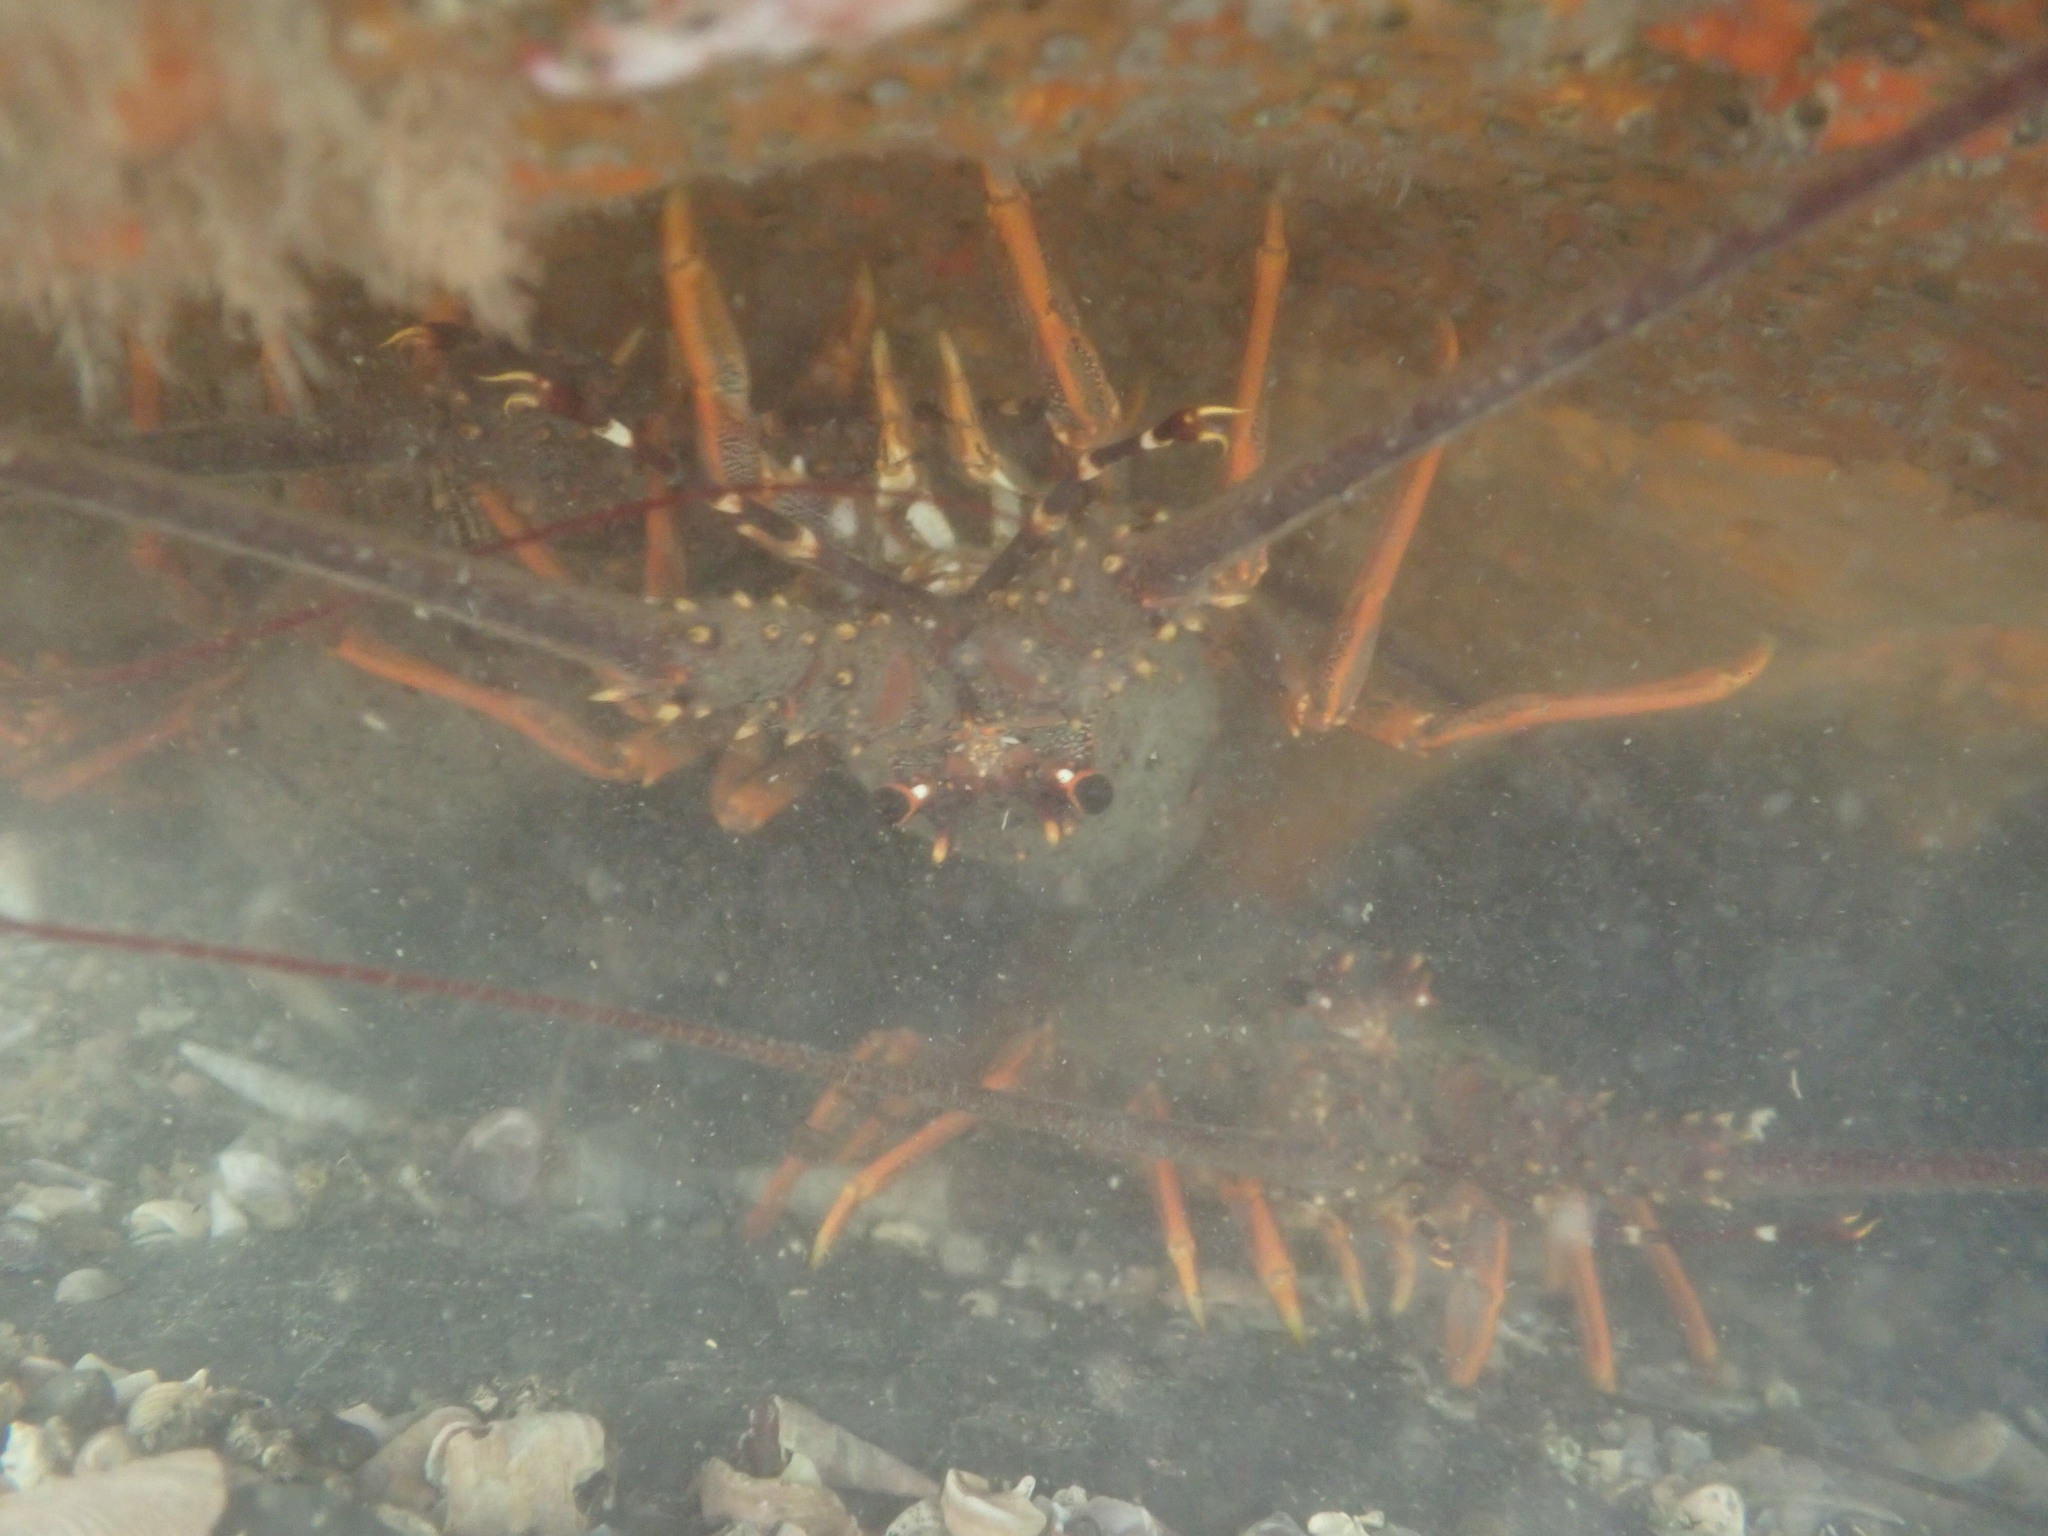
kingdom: Animalia
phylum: Arthropoda
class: Malacostraca
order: Decapoda
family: Palinuridae
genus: Jasus
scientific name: Jasus edwardsii
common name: Red rock lobster
